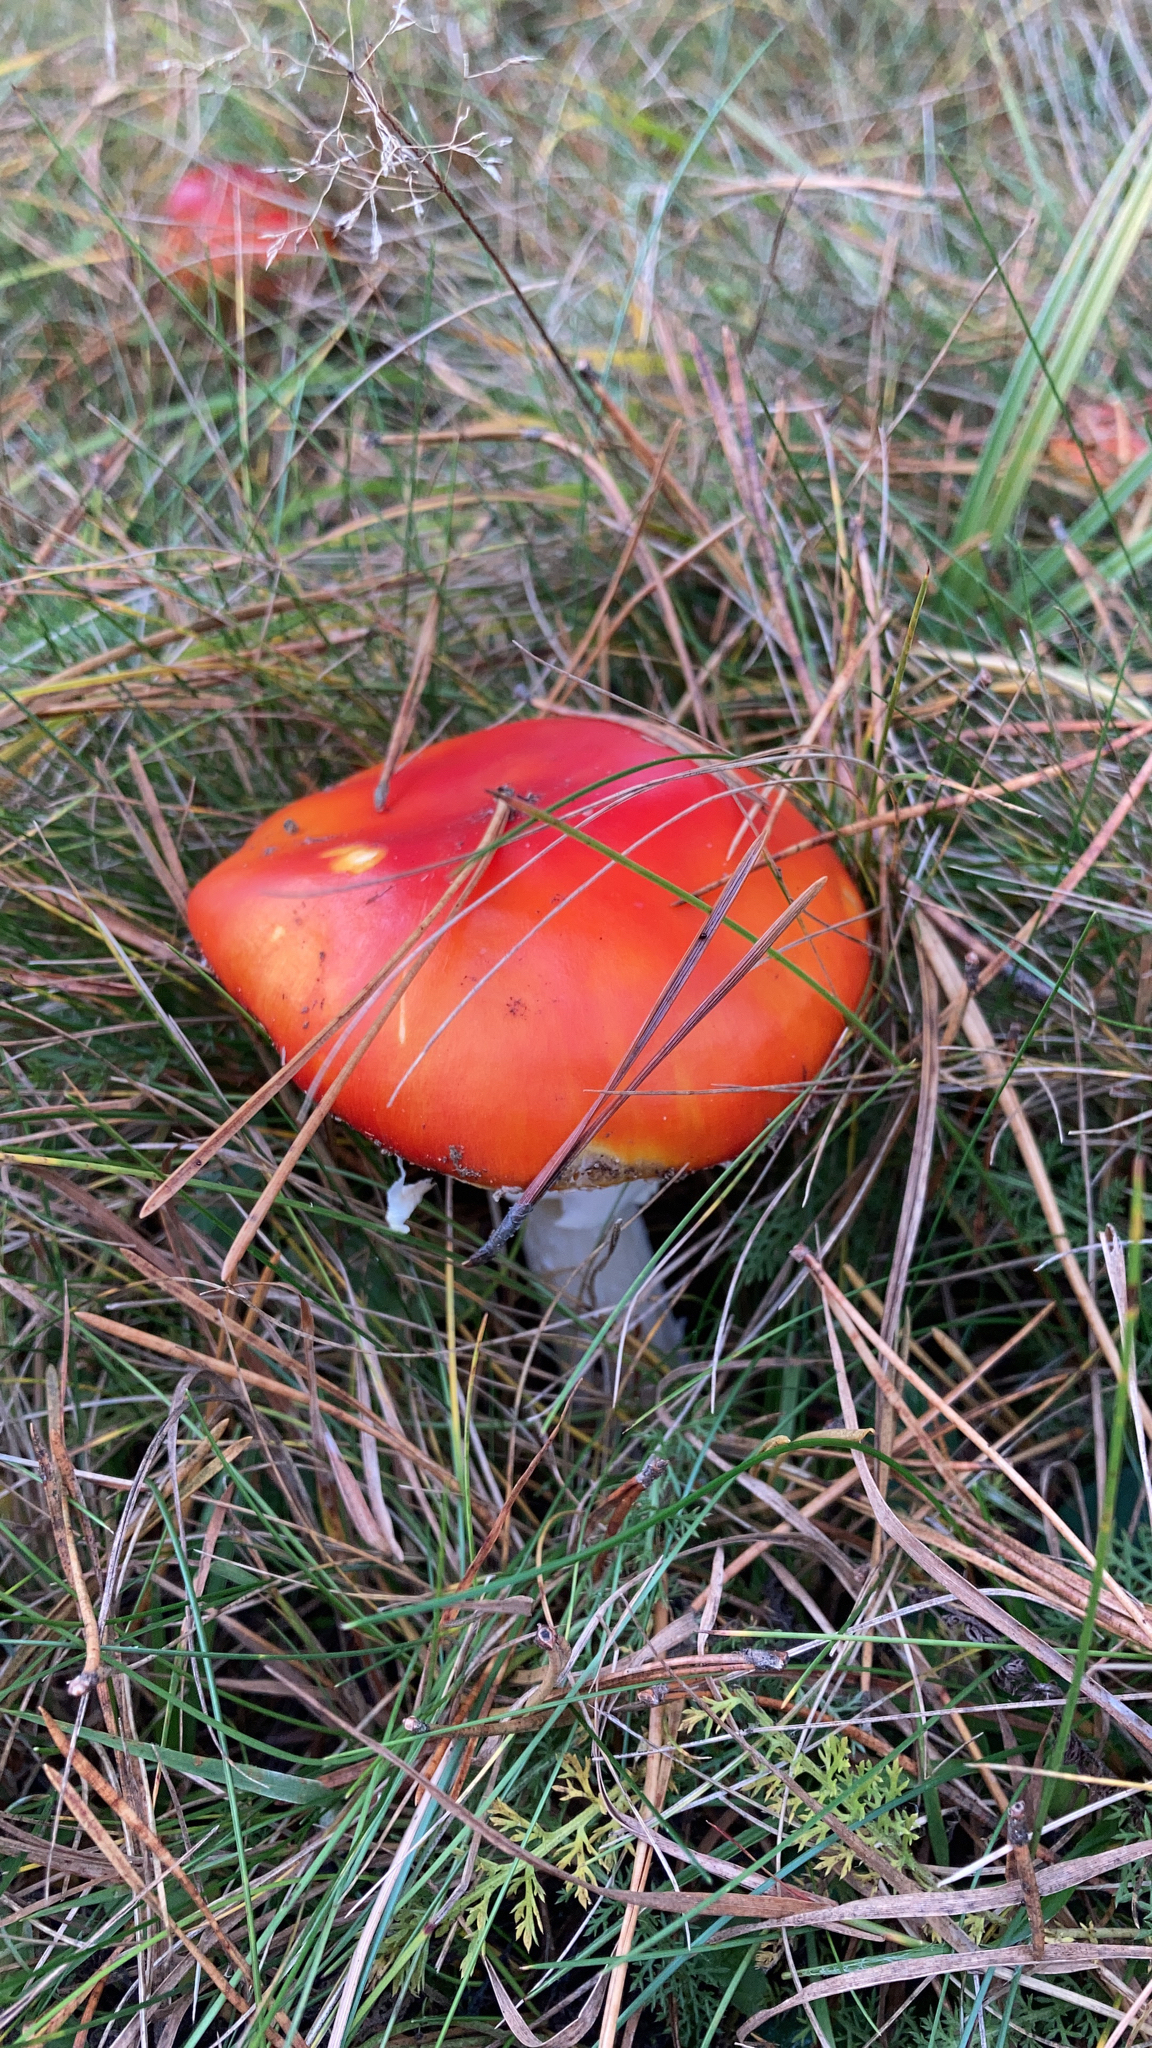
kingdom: Fungi
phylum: Basidiomycota
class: Agaricomycetes
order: Agaricales
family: Amanitaceae
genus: Amanita
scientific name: Amanita muscaria
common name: Fly agaric
